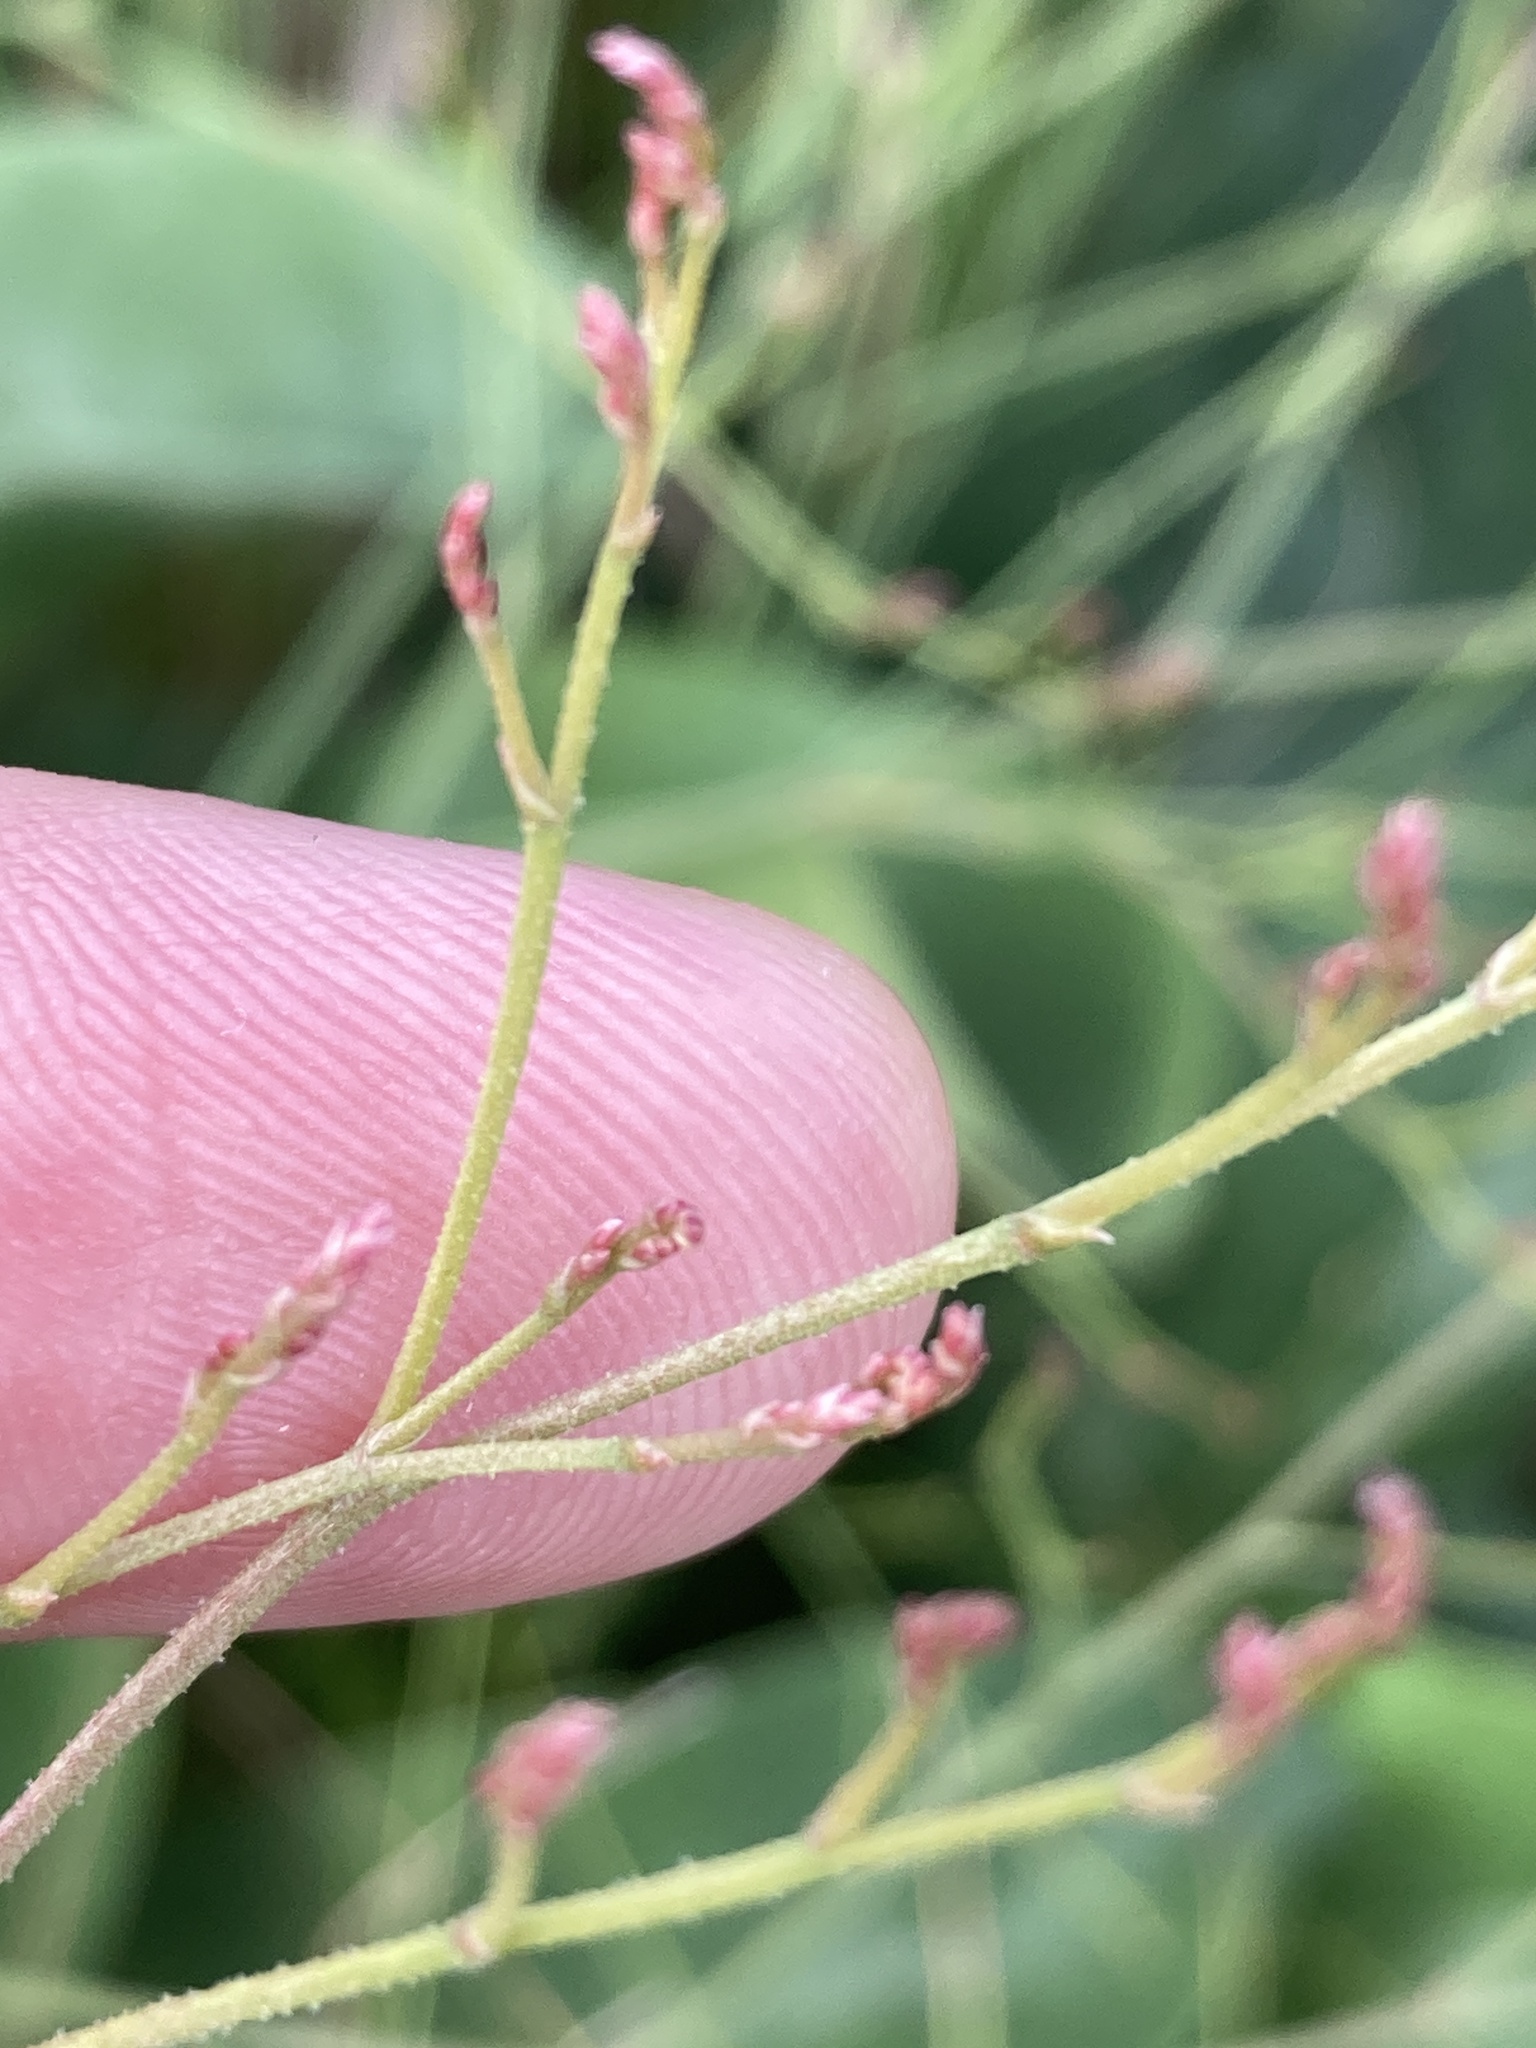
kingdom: Plantae
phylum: Tracheophyta
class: Magnoliopsida
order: Caryophyllales
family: Plumbaginaceae
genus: Limonium
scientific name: Limonium platyphyllum
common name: Florist's sea lavender
